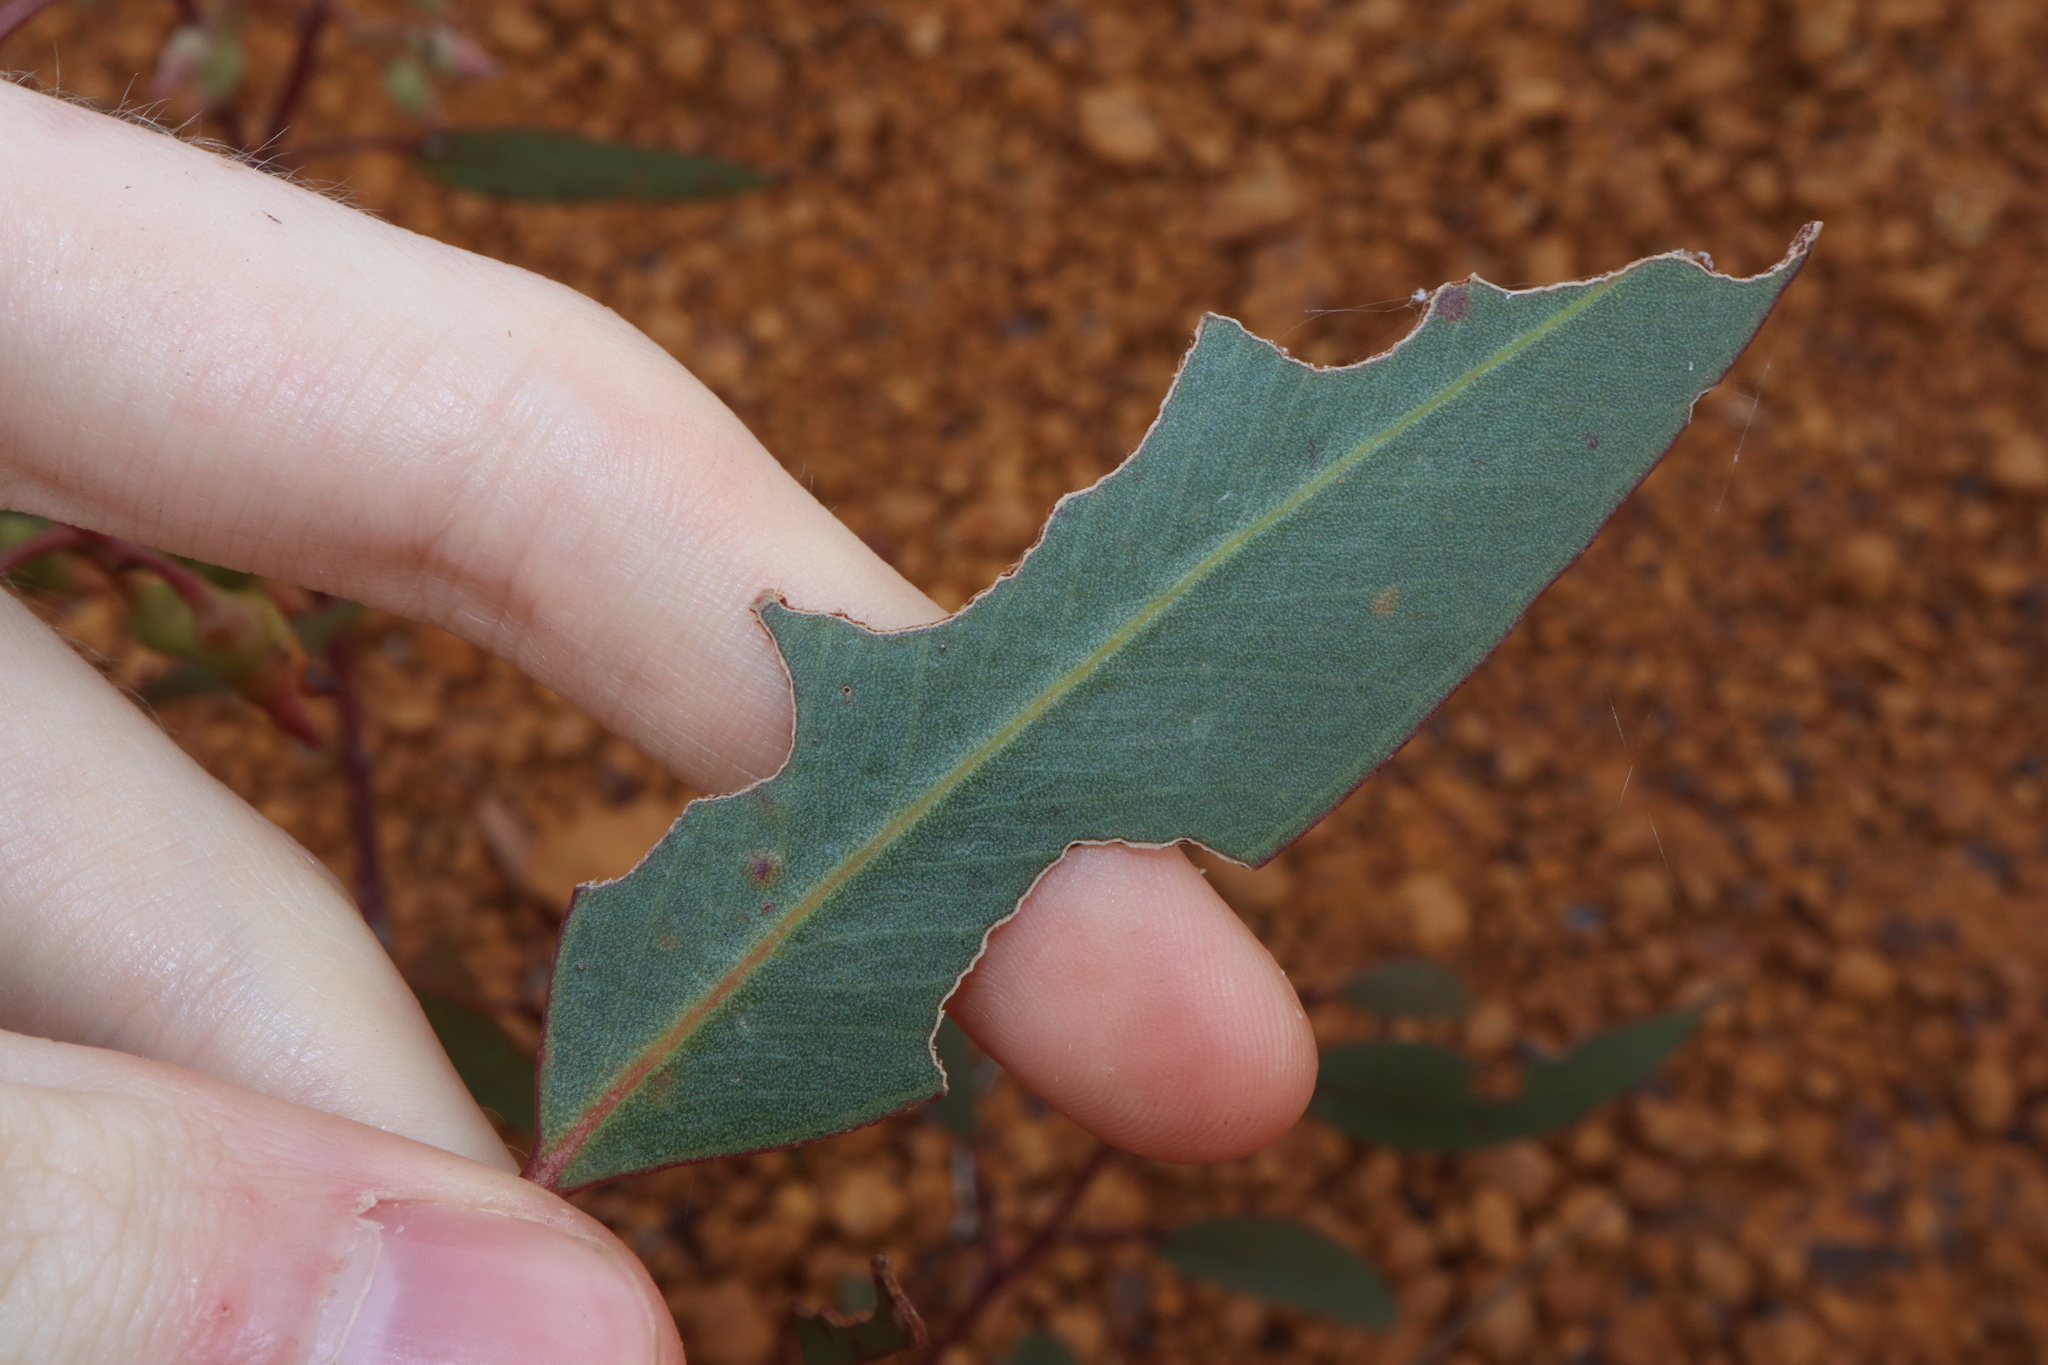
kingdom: Plantae
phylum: Tracheophyta
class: Magnoliopsida
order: Myrtales
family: Myrtaceae
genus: Eucalyptus
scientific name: Eucalyptus ecostata
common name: Coastal silver mallee
